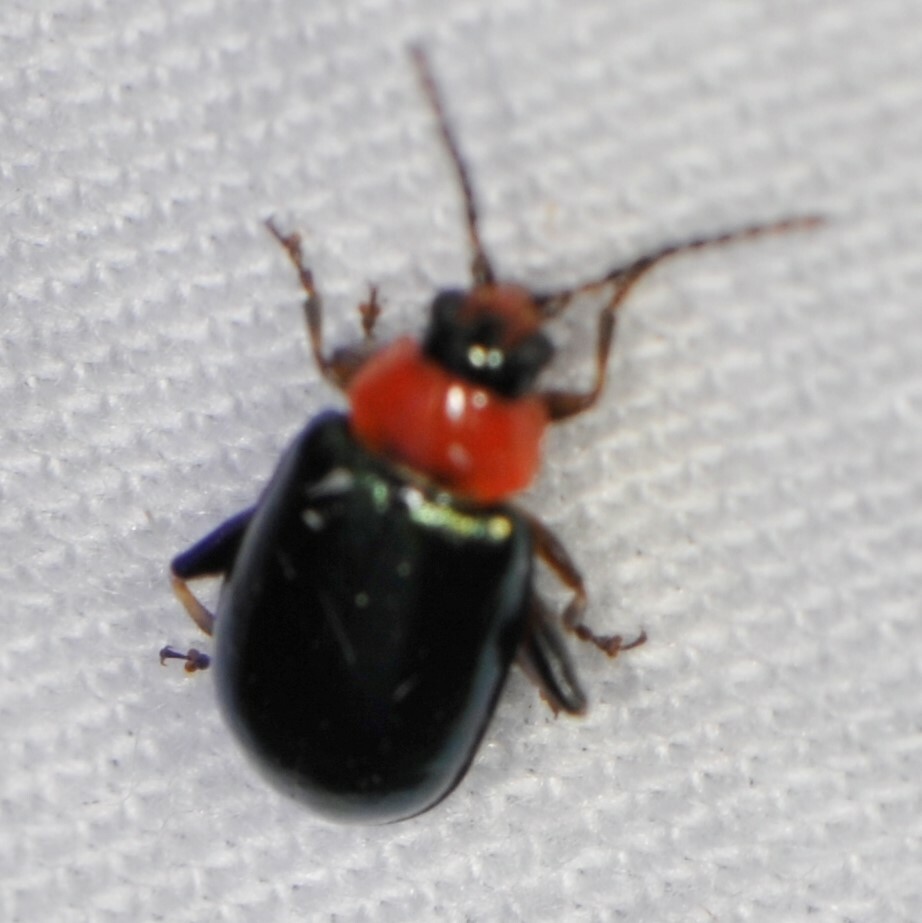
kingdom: Animalia
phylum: Arthropoda
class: Insecta
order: Coleoptera
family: Chrysomelidae
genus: Disonycha
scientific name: Disonycha politula
